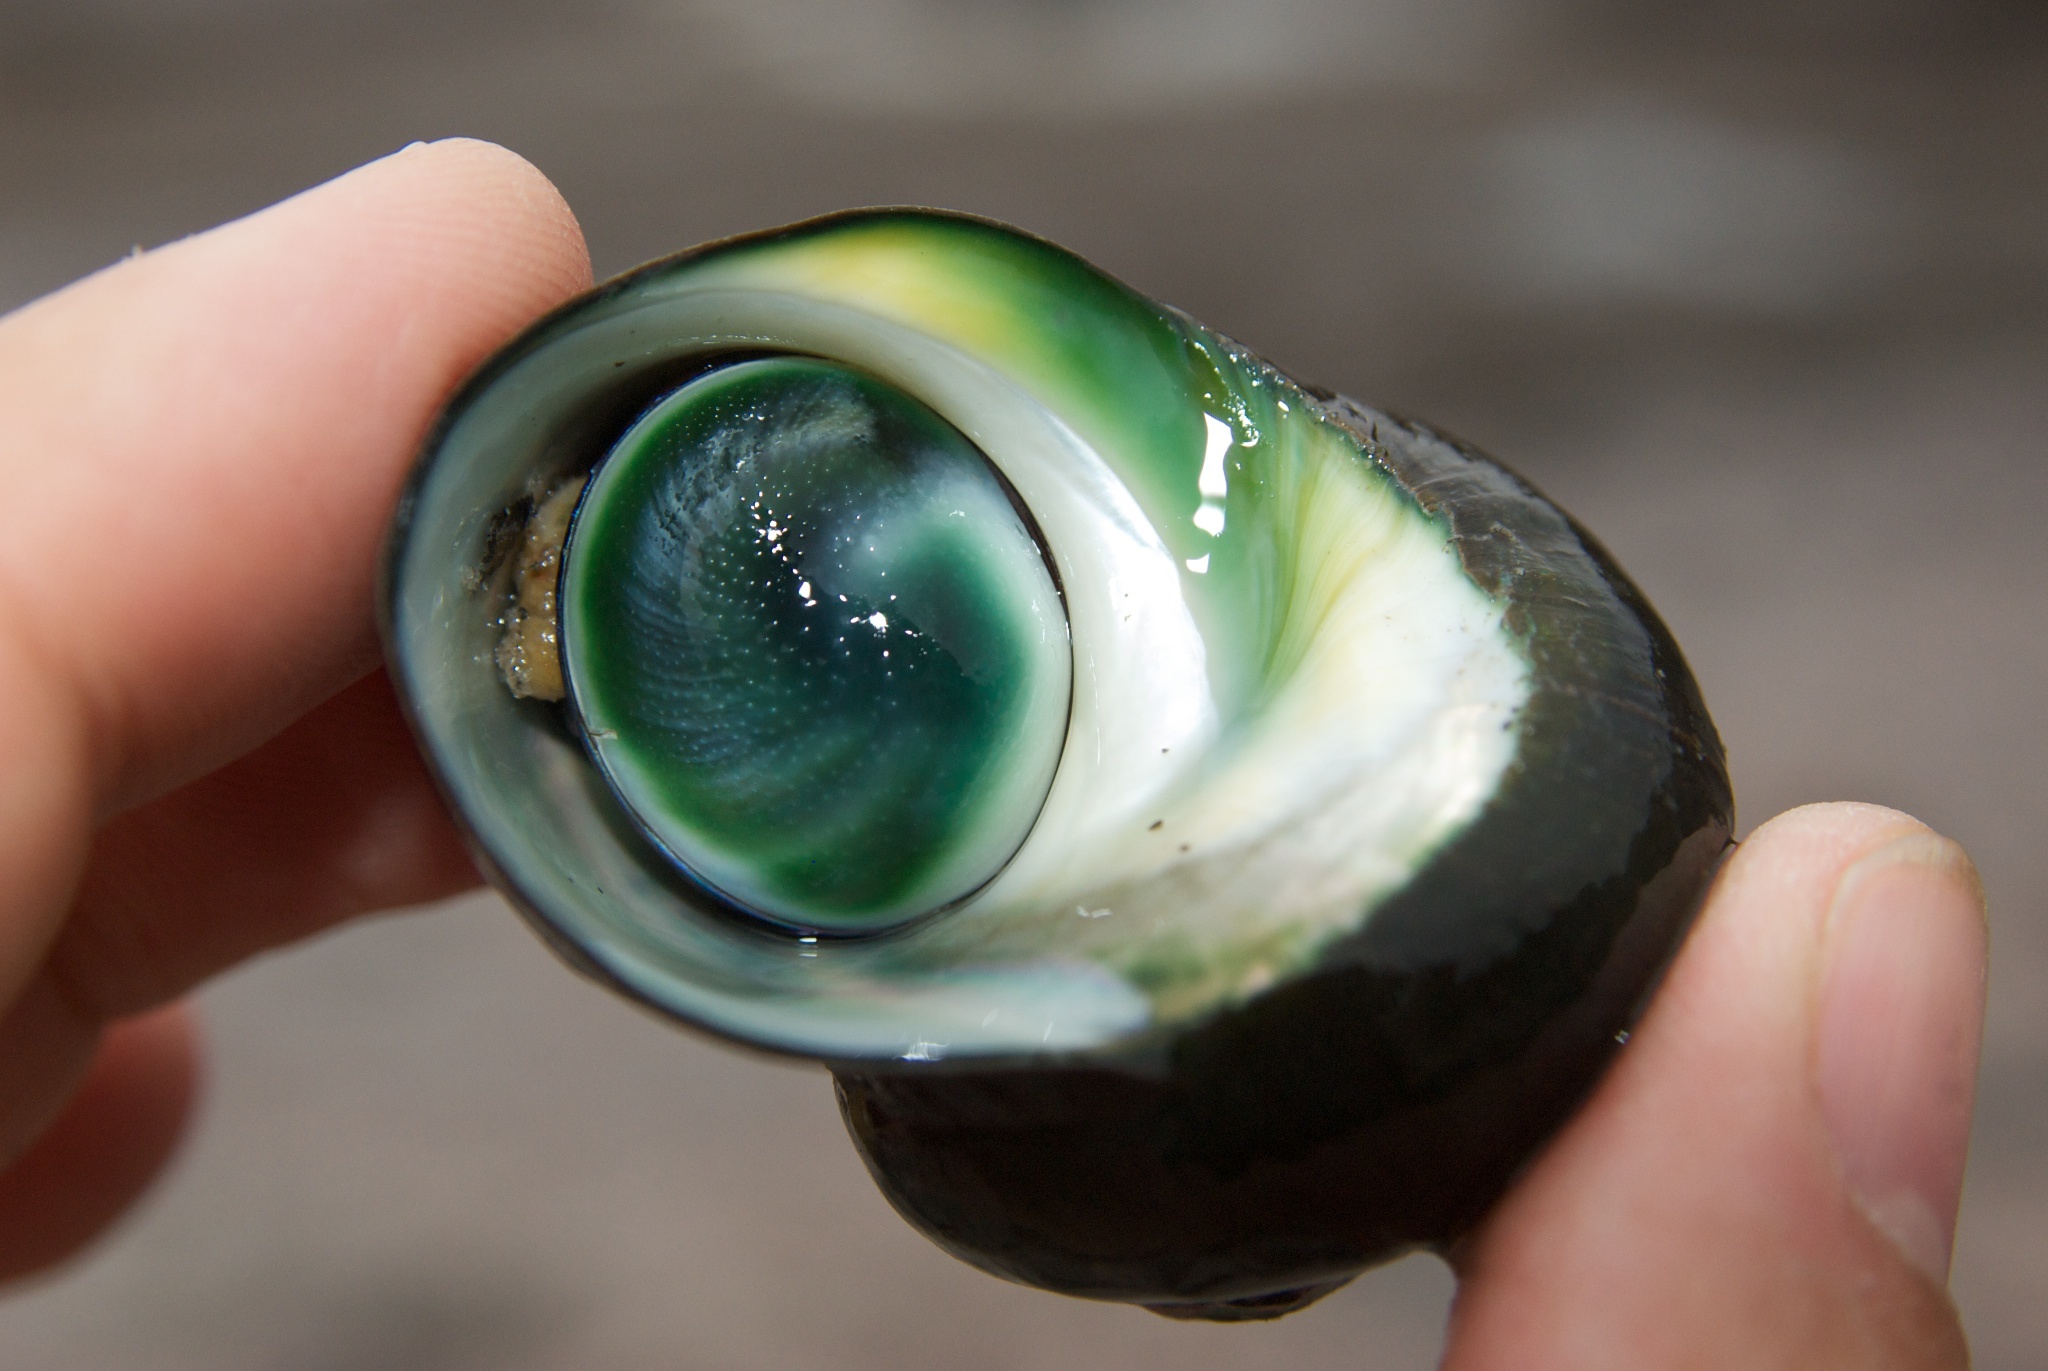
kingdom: Animalia
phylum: Mollusca
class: Gastropoda
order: Trochida
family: Turbinidae
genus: Lunella
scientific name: Lunella smaragda
